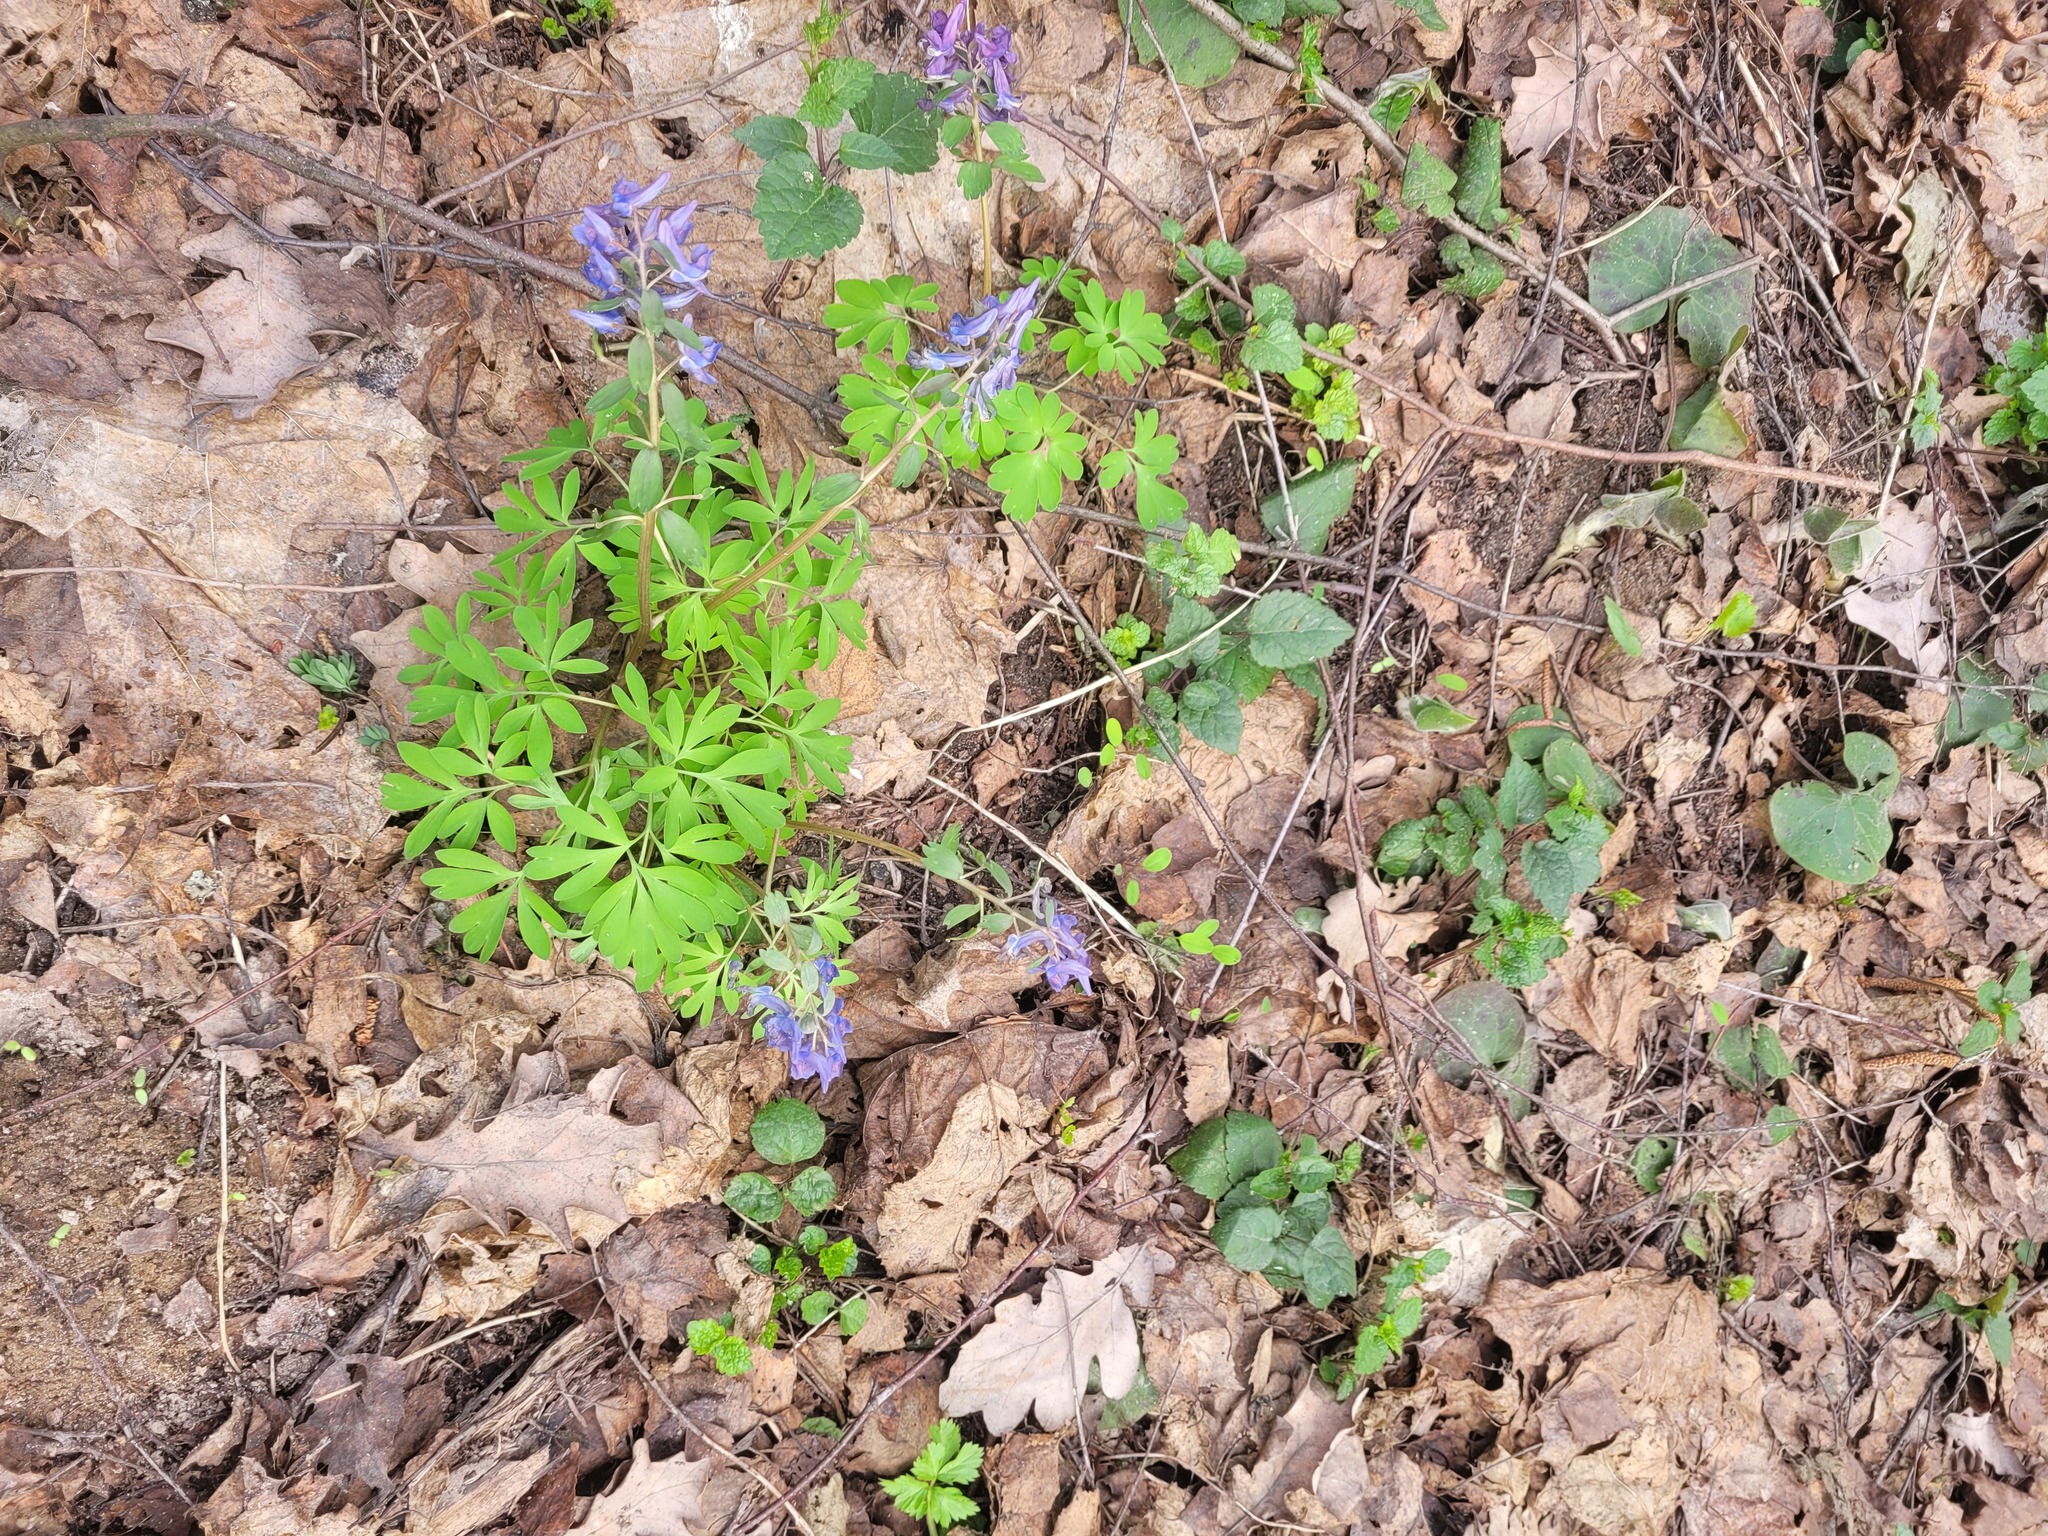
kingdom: Plantae
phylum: Tracheophyta
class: Magnoliopsida
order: Ranunculales
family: Papaveraceae
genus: Corydalis
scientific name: Corydalis solida
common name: Bird-in-a-bush
